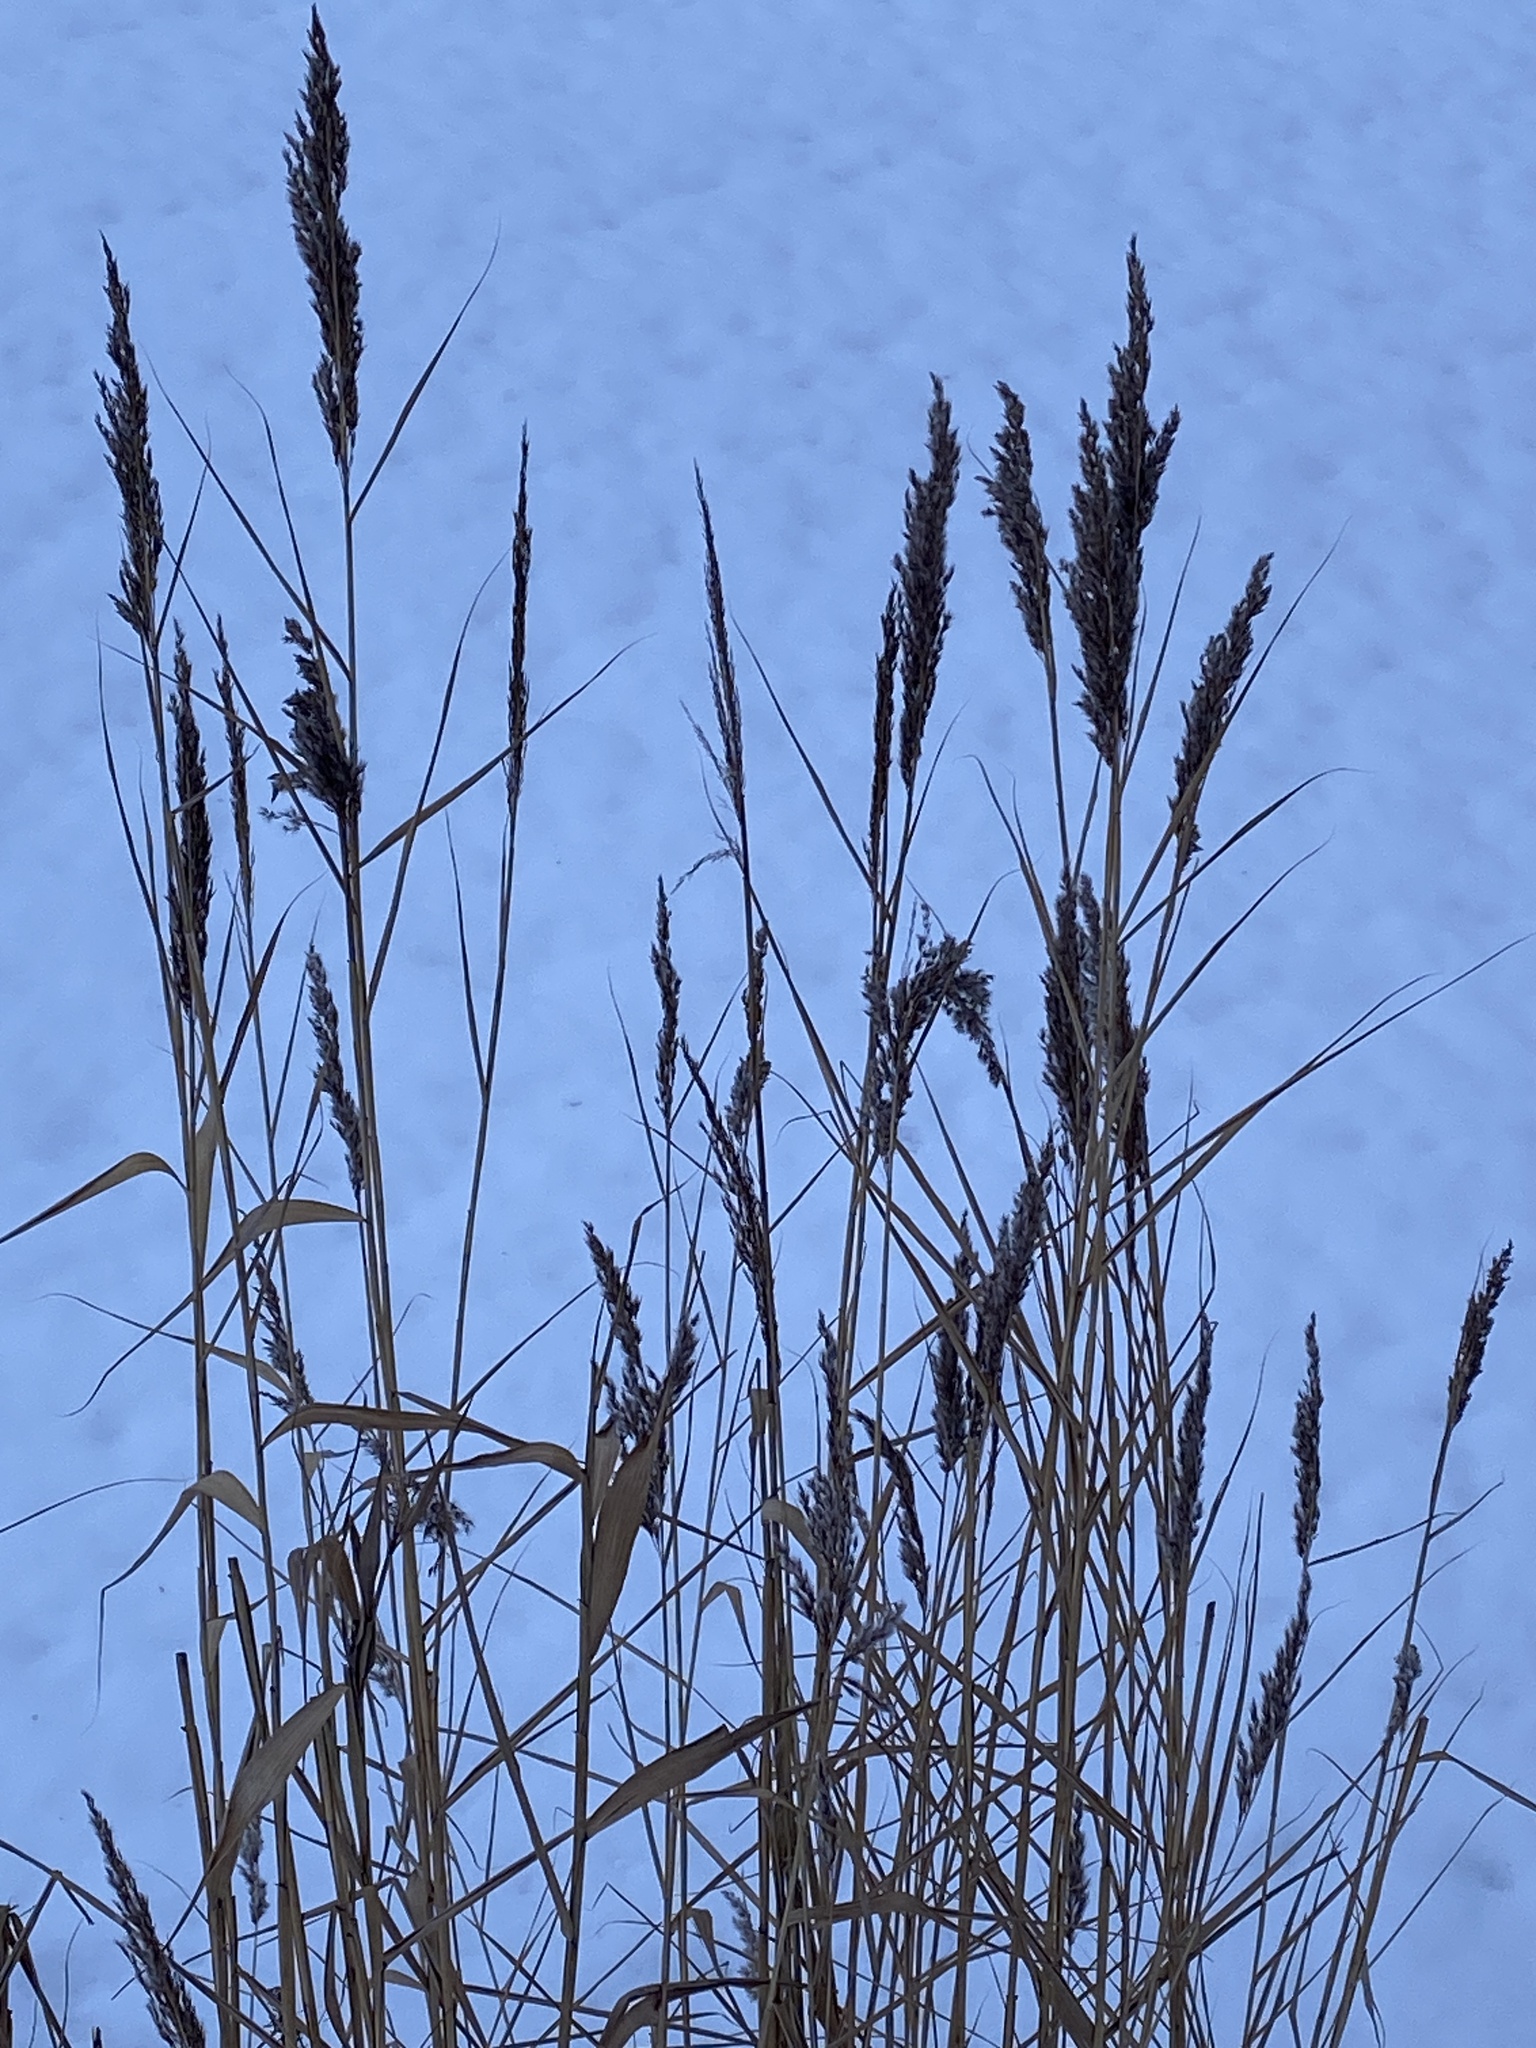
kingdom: Plantae
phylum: Tracheophyta
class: Liliopsida
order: Poales
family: Poaceae
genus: Phragmites
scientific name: Phragmites australis
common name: Common reed
